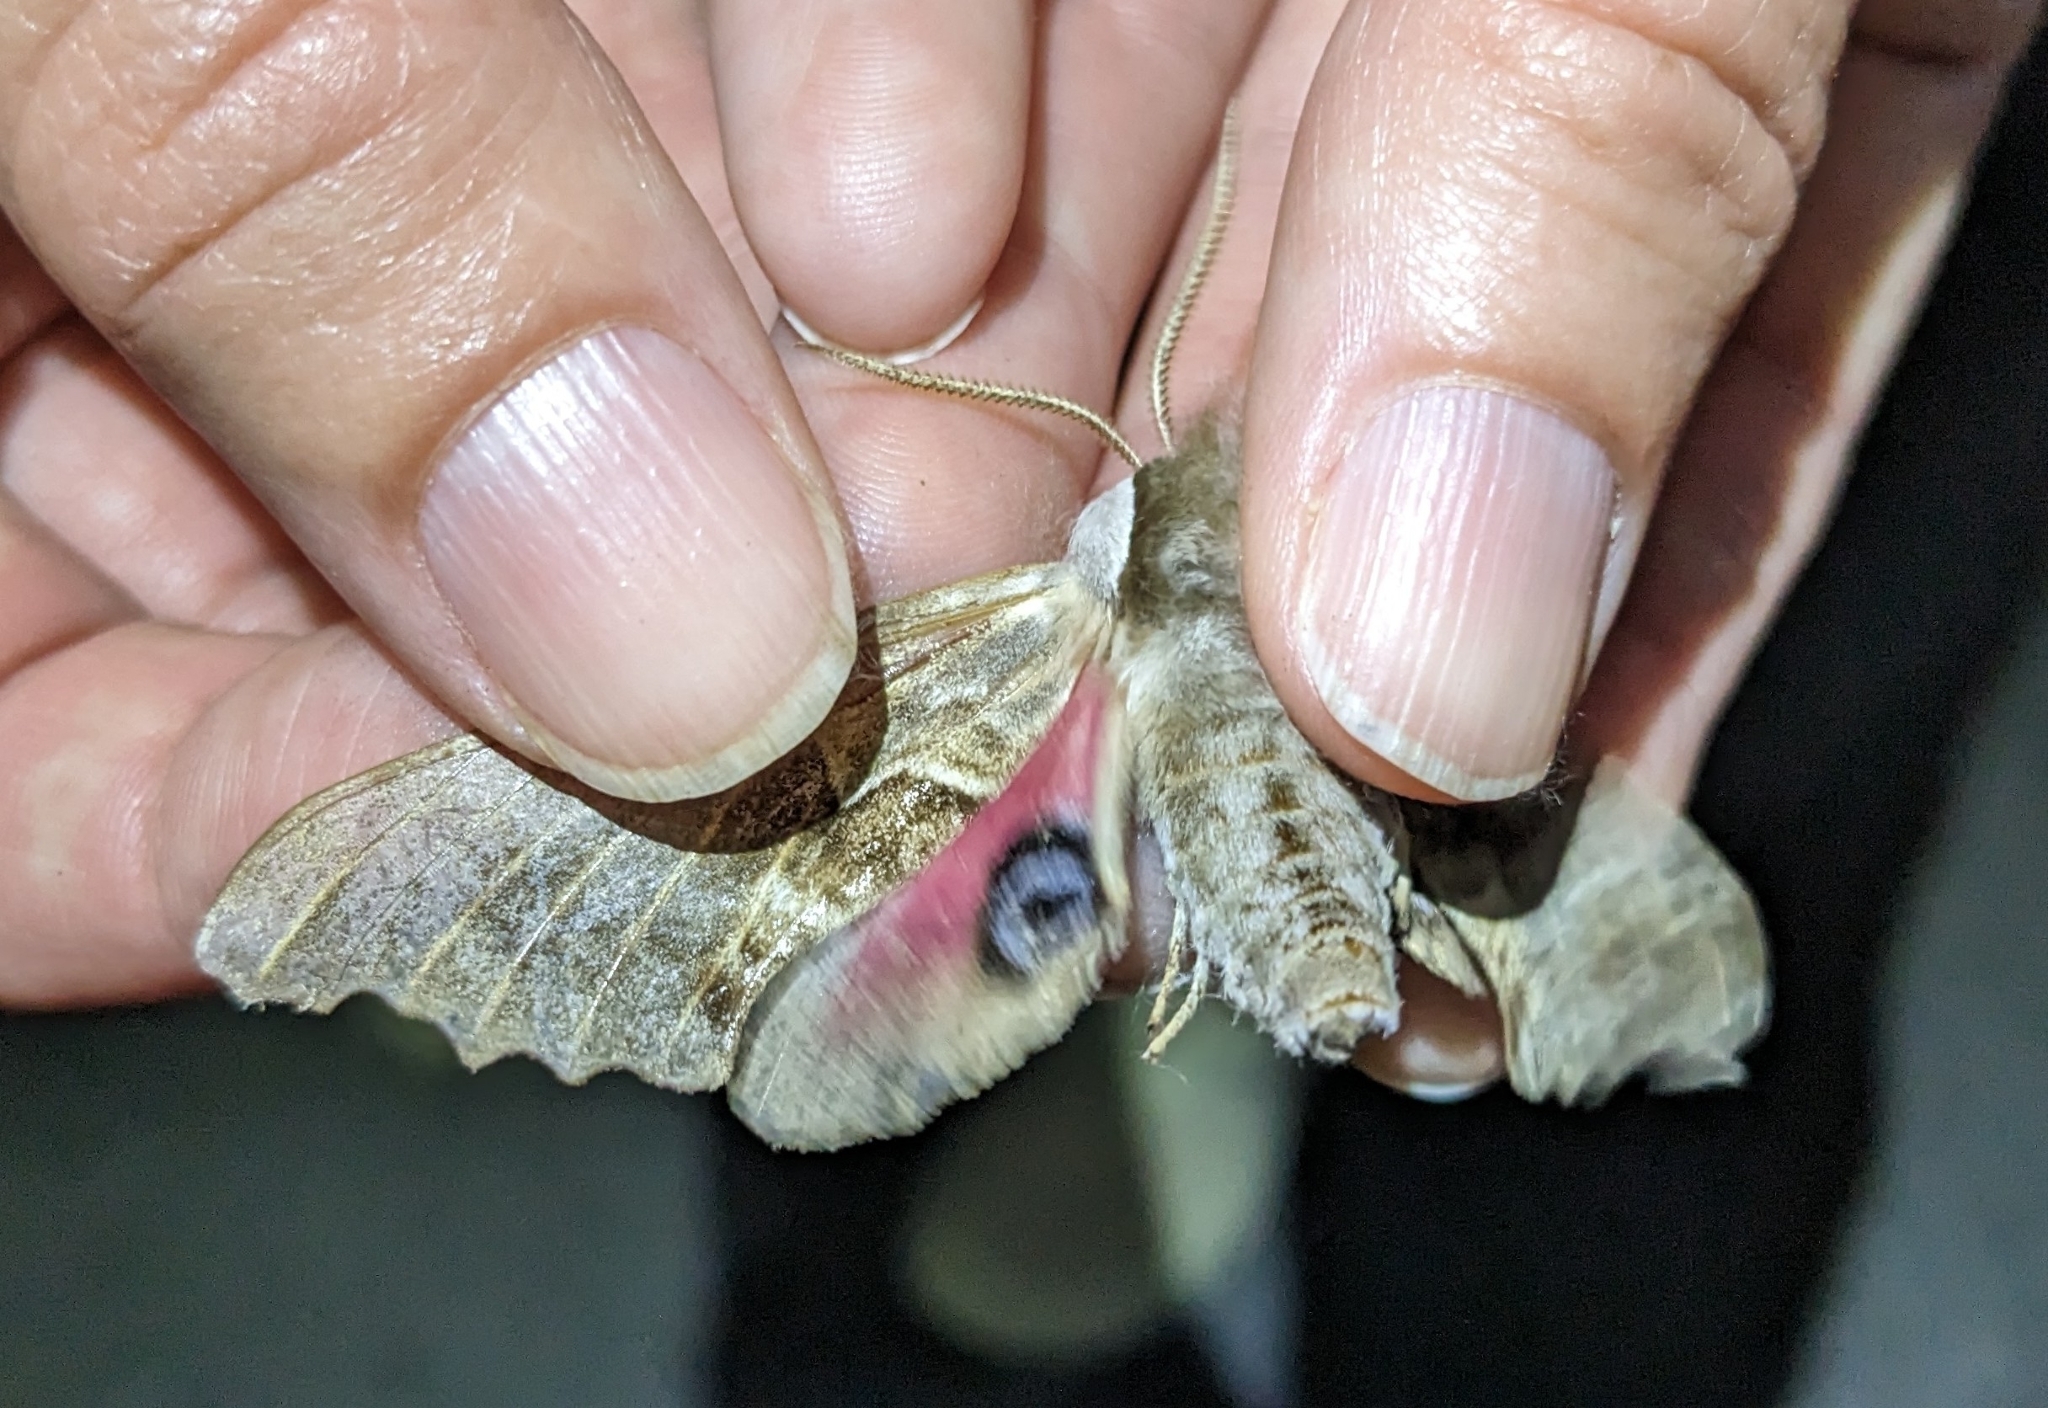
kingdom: Animalia
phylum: Arthropoda
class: Insecta
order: Lepidoptera
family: Sphingidae
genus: Smerinthus
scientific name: Smerinthus cerisyi
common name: Cerisy's sphinx moth
